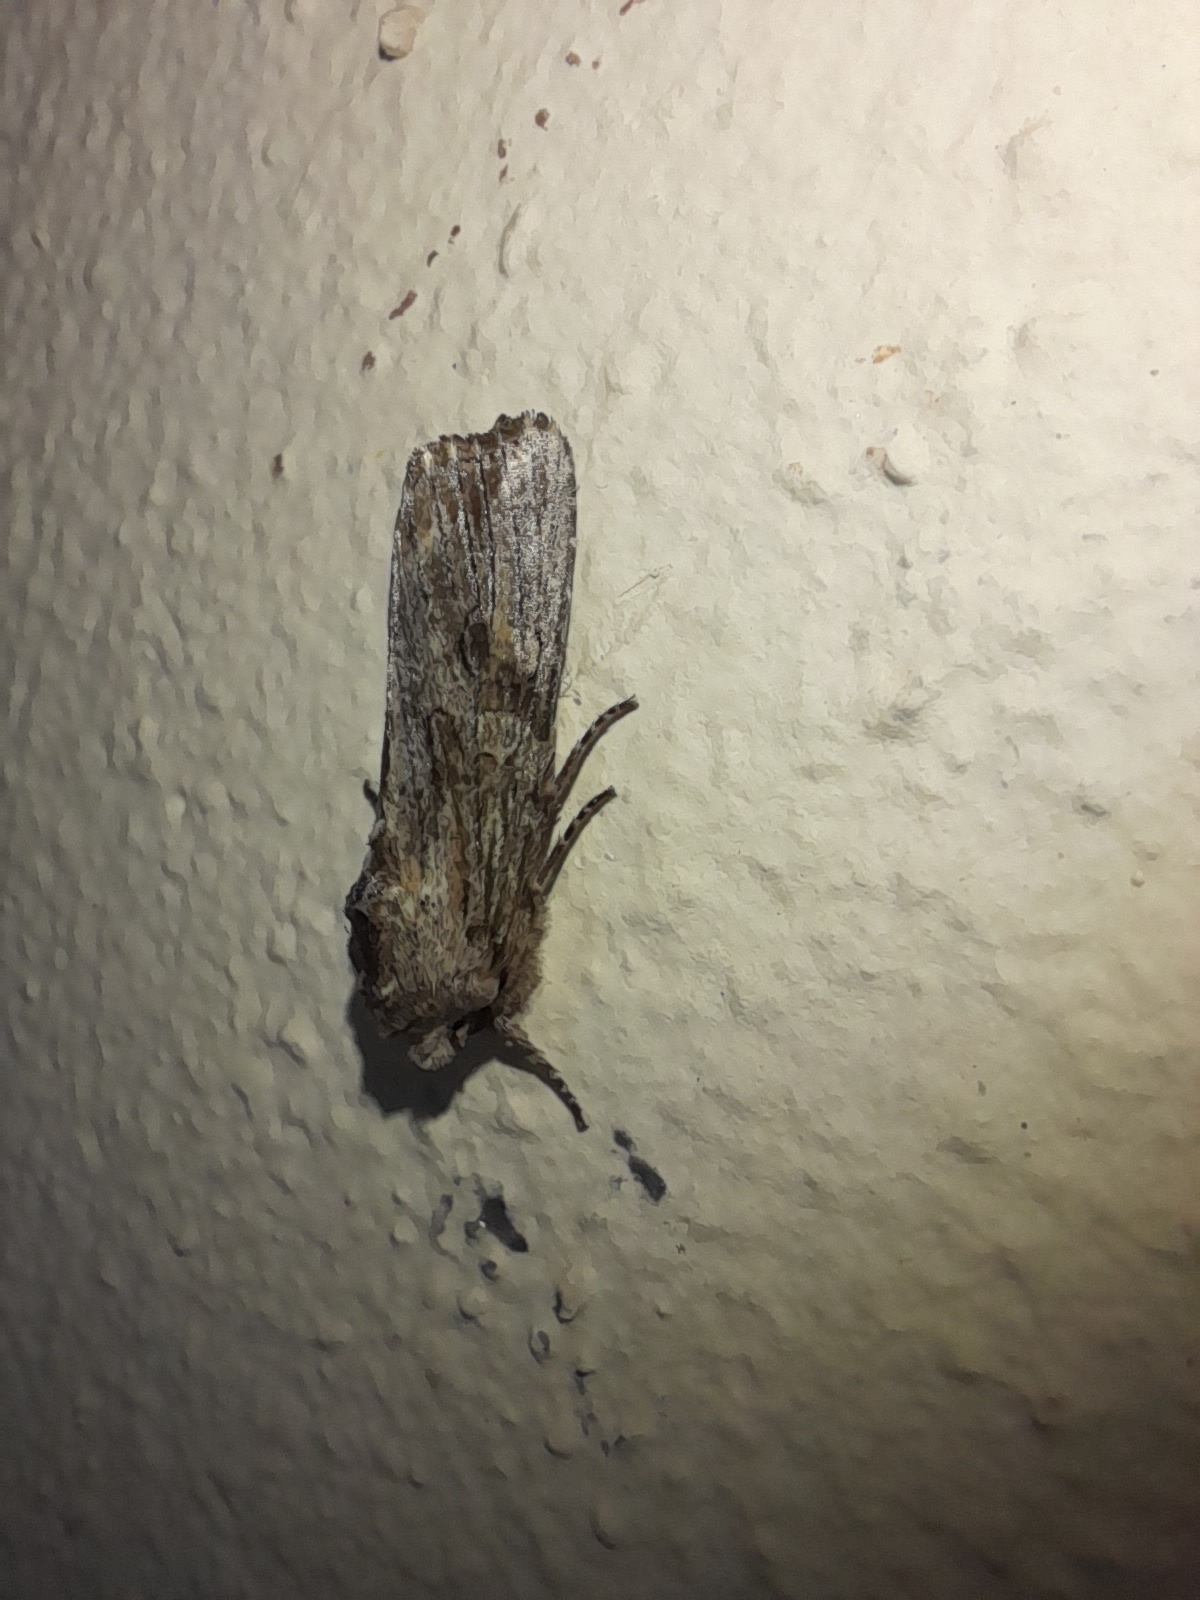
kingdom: Animalia
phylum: Arthropoda
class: Insecta
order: Lepidoptera
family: Noctuidae
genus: Egira
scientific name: Egira conspicillaris
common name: Silver cloud
